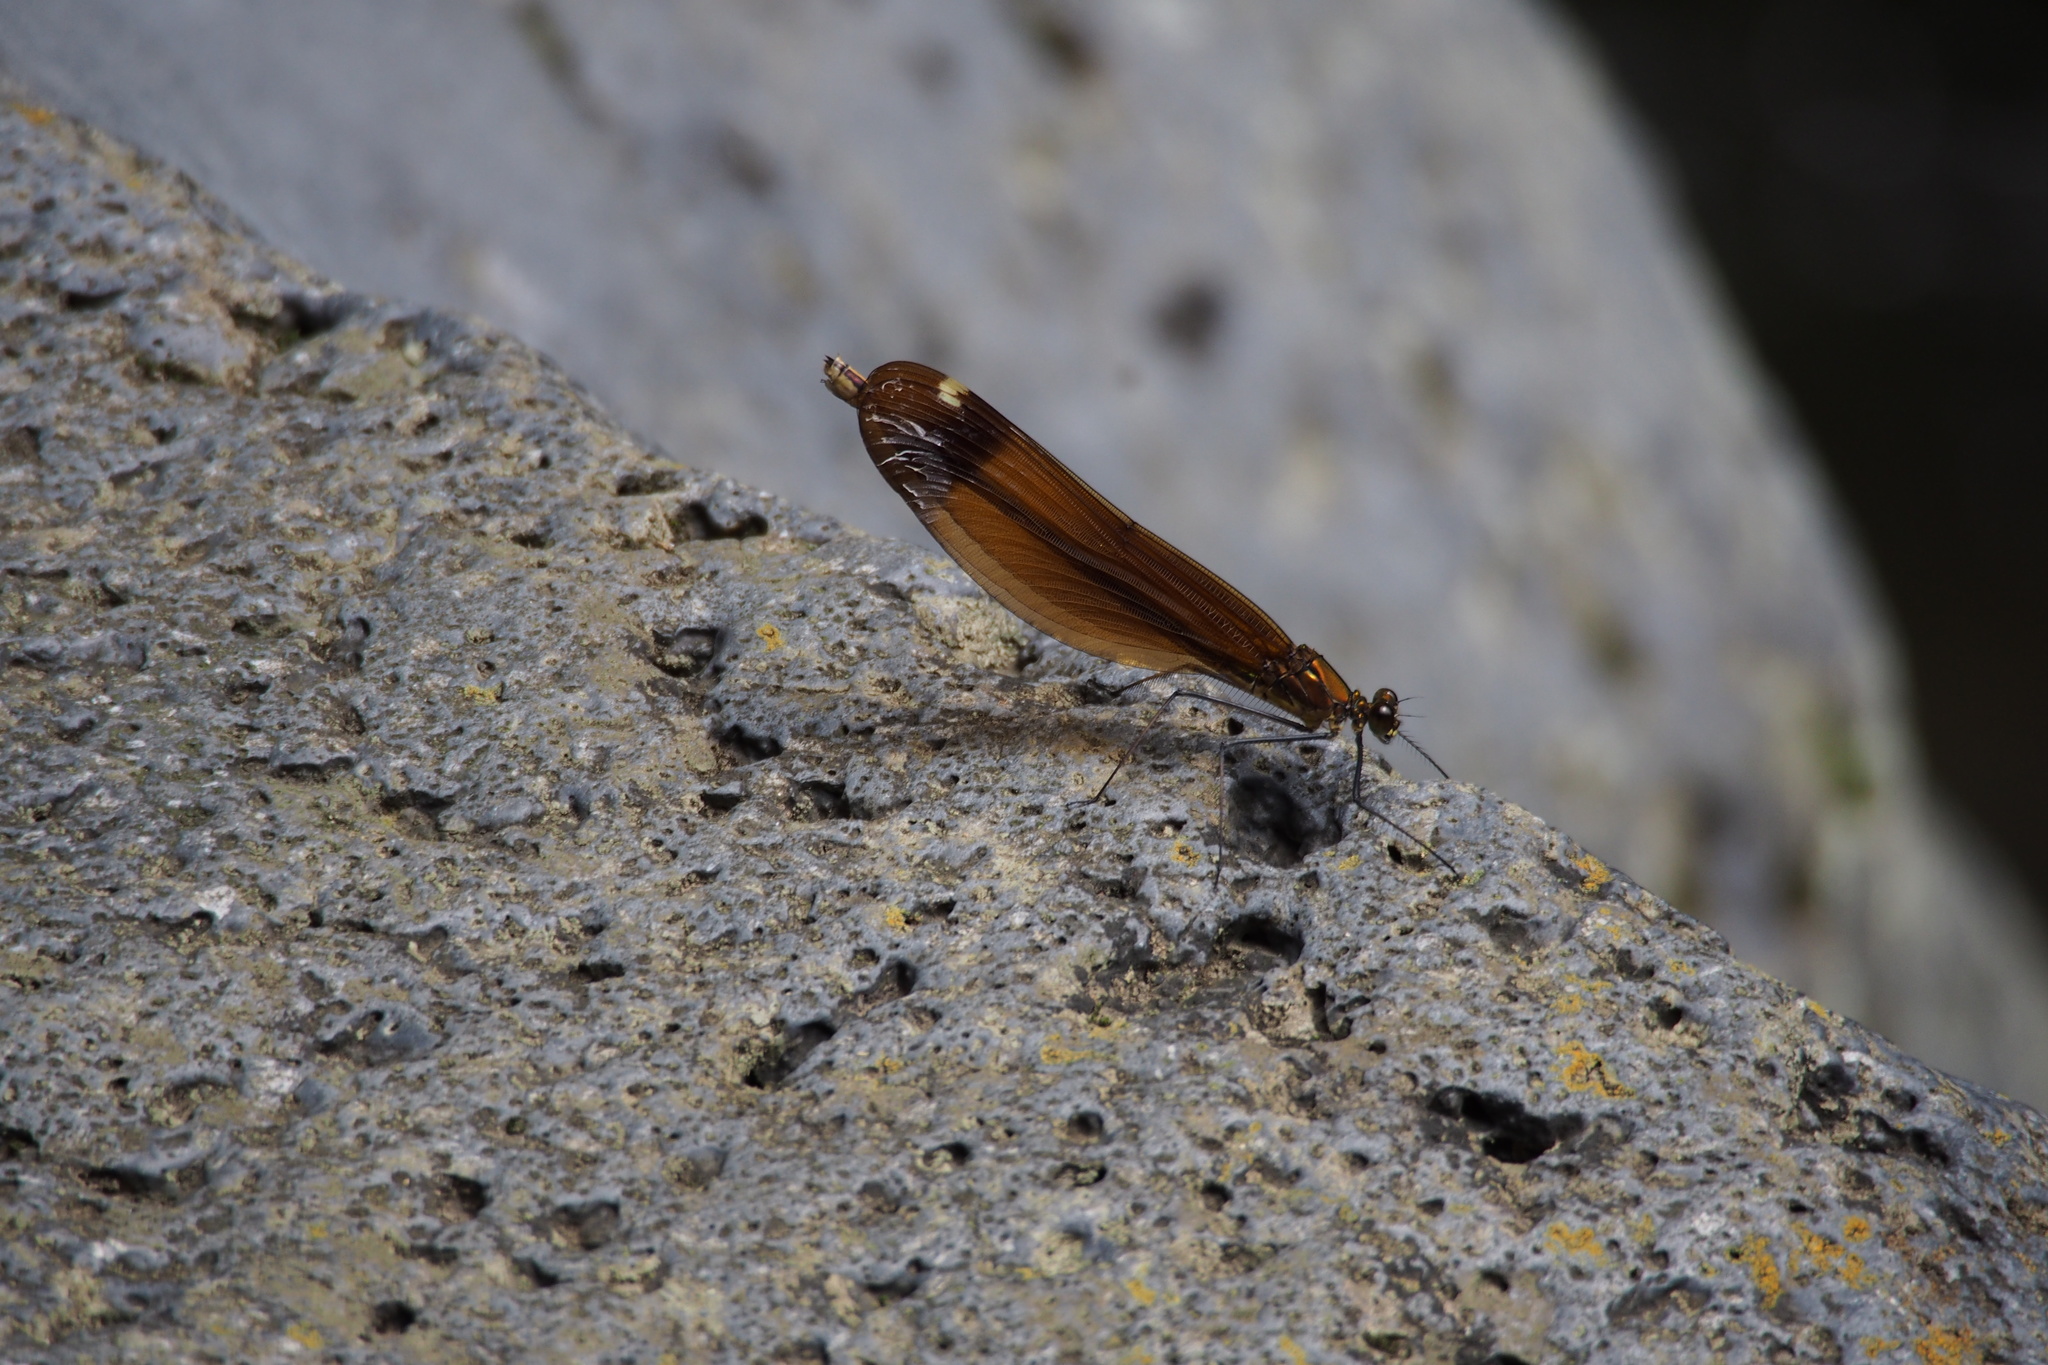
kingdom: Animalia
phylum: Arthropoda
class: Insecta
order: Odonata
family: Calopterygidae
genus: Calopteryx
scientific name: Calopteryx cornelia
